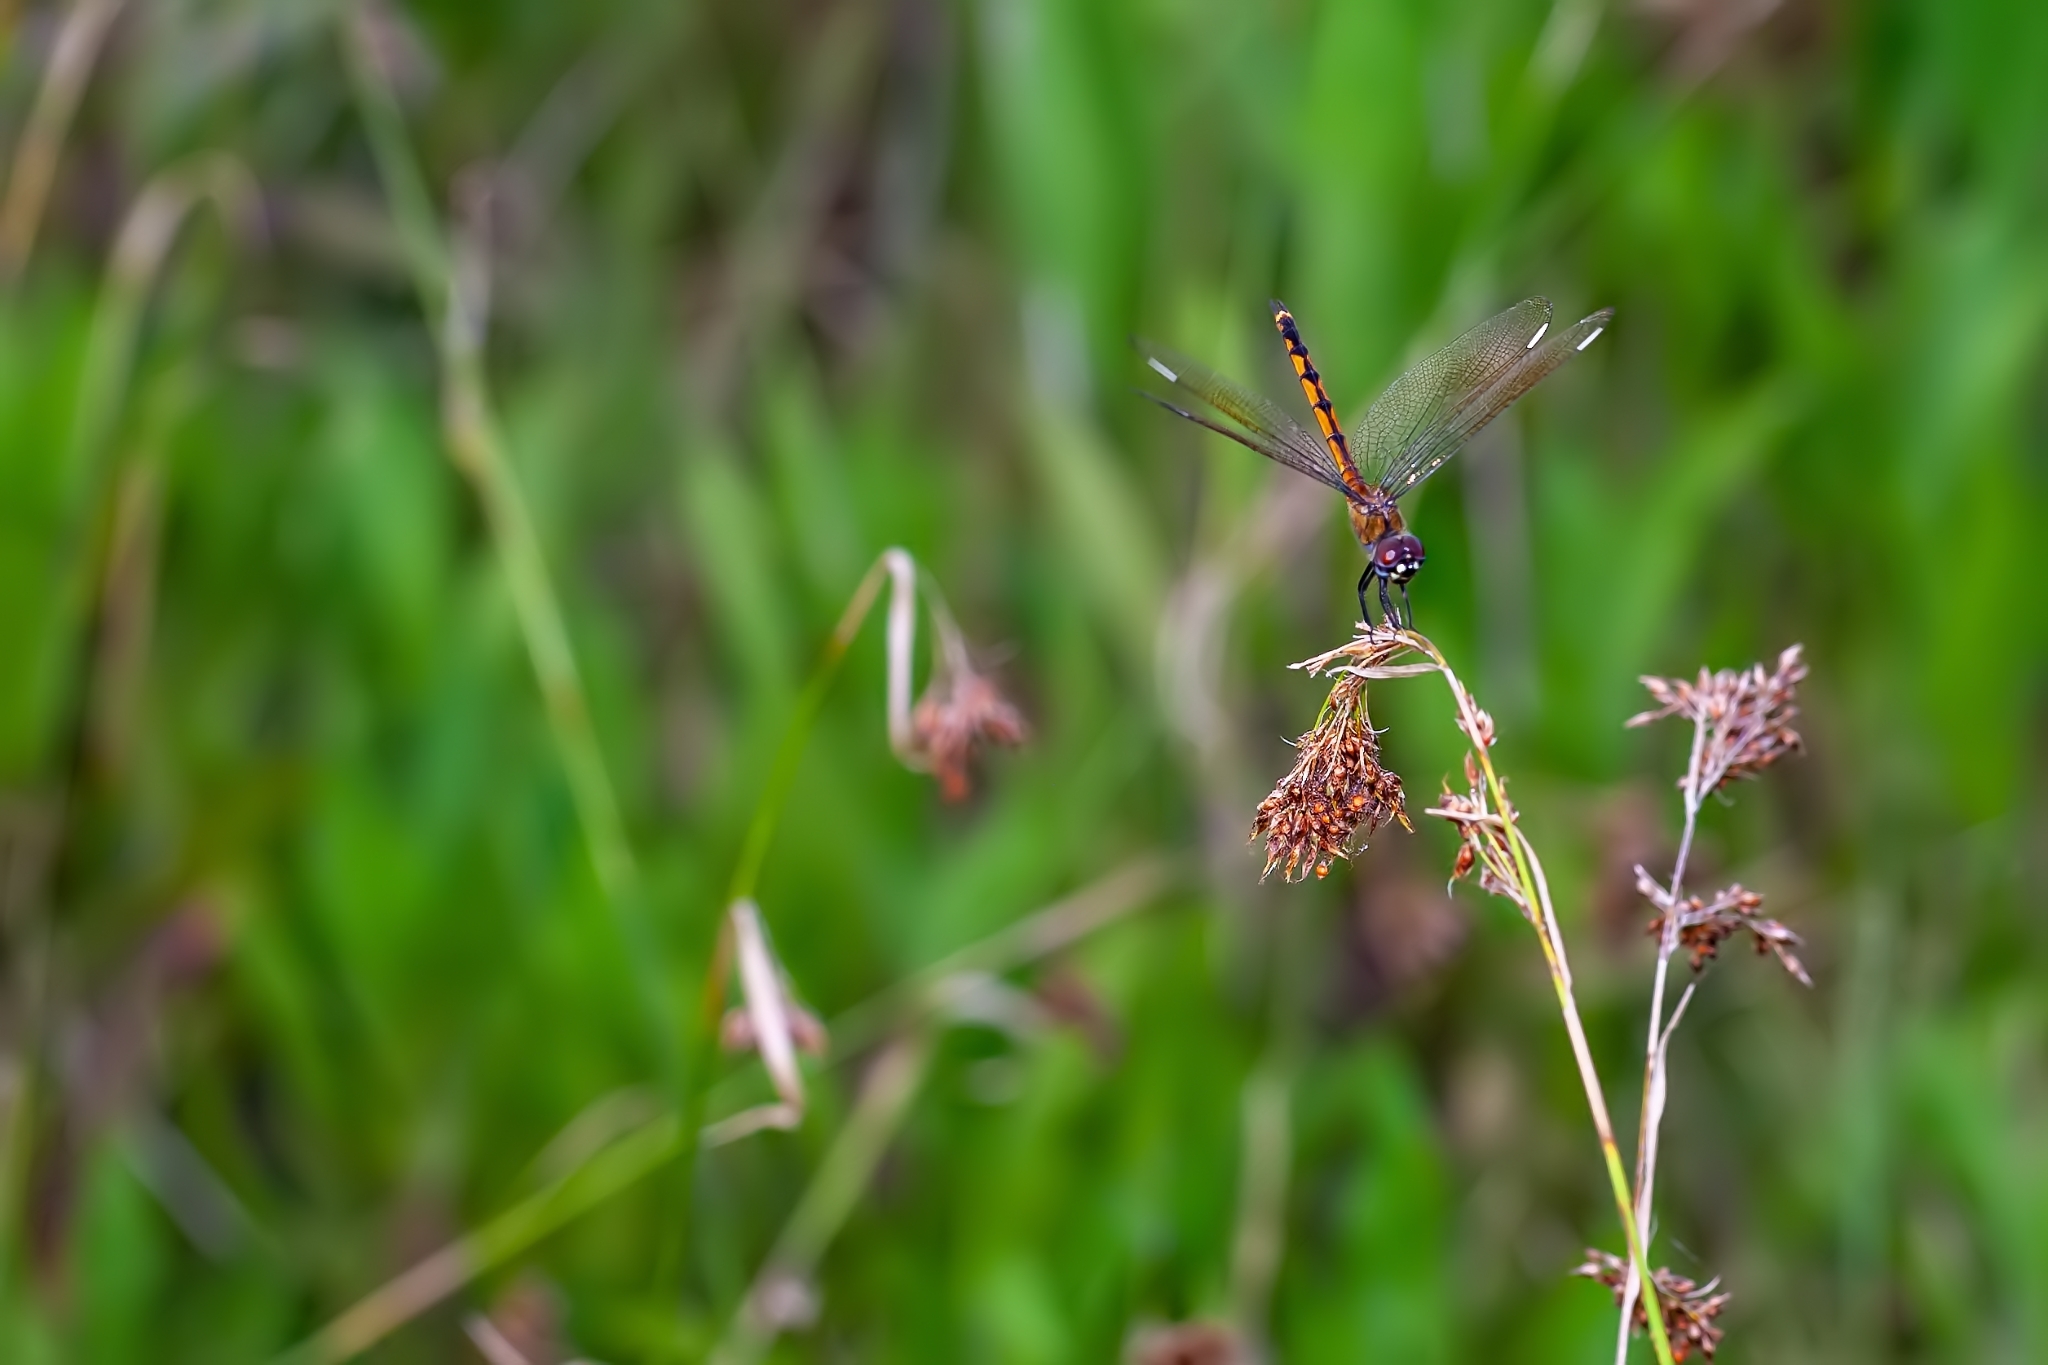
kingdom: Animalia
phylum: Arthropoda
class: Insecta
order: Odonata
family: Libellulidae
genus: Brachymesia
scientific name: Brachymesia gravida
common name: Four-spotted pennant
